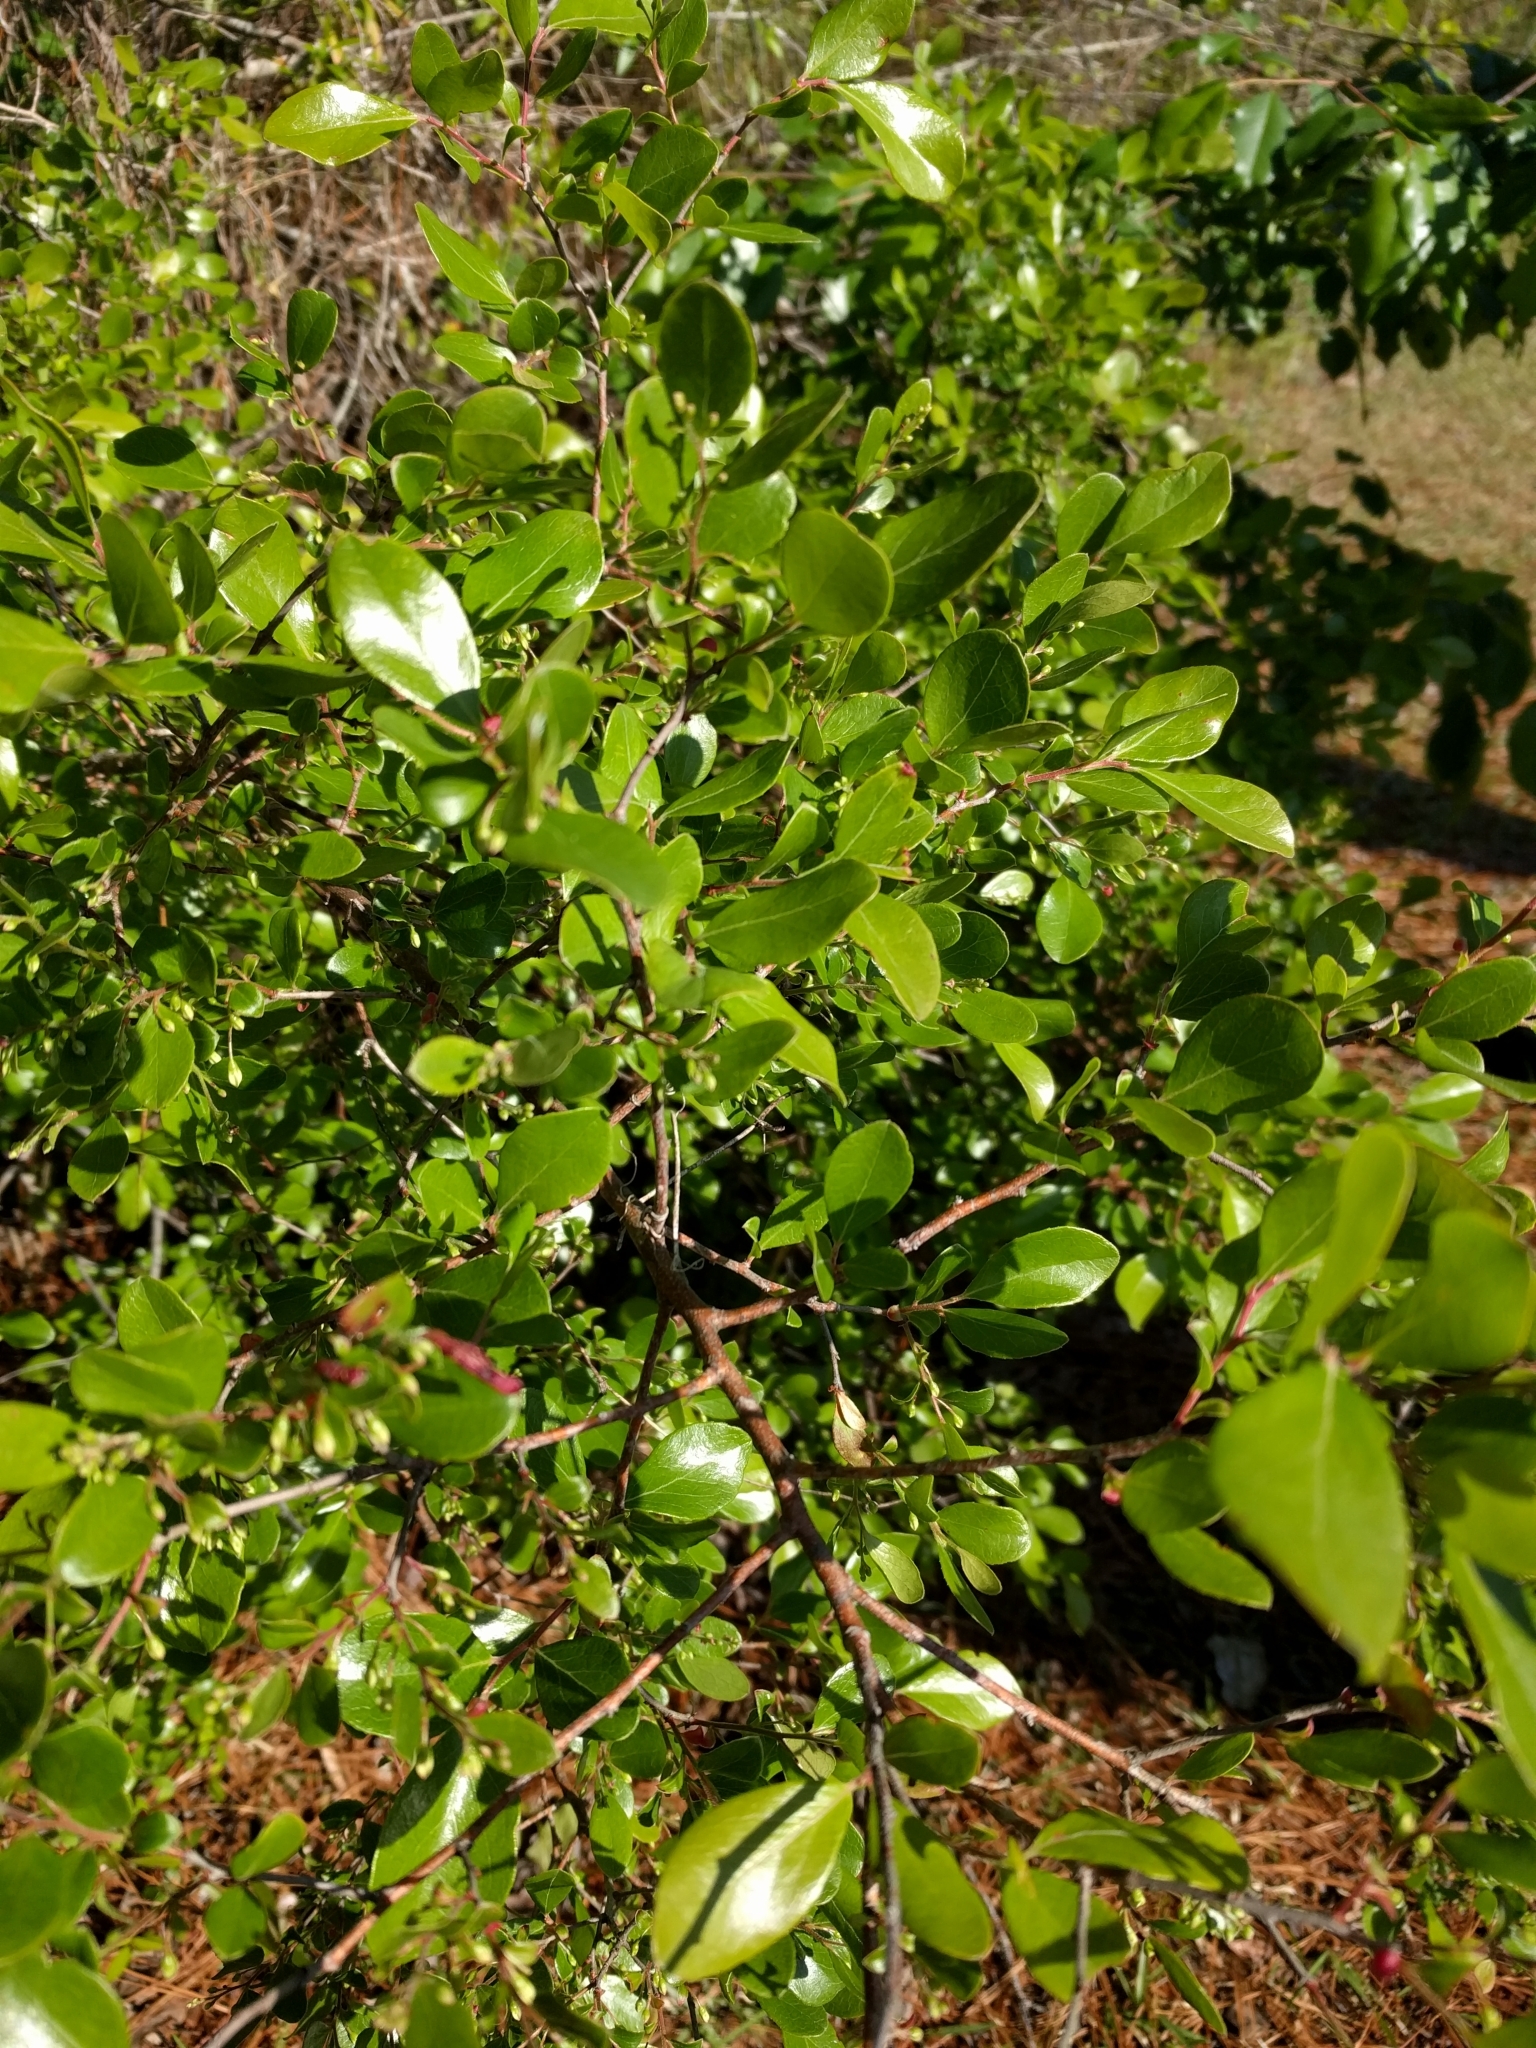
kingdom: Plantae
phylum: Tracheophyta
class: Magnoliopsida
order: Ericales
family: Ericaceae
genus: Vaccinium
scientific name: Vaccinium arboreum
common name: Farkleberry
